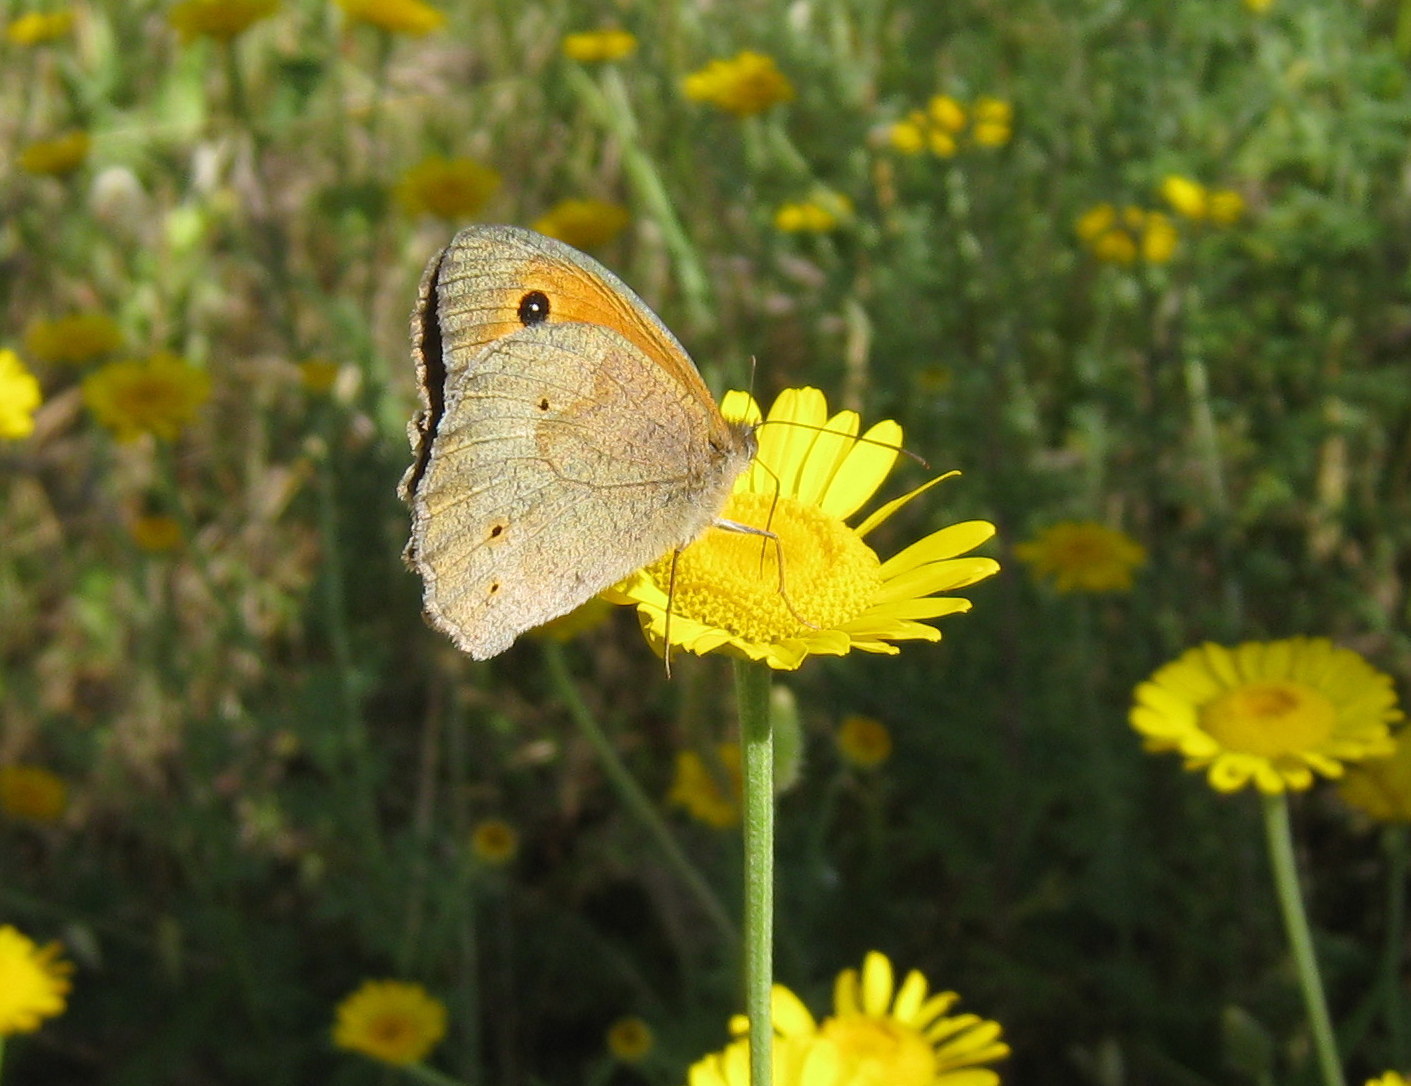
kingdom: Animalia
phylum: Arthropoda
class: Insecta
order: Lepidoptera
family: Nymphalidae
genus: Maniola
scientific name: Maniola jurtina
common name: Meadow brown
